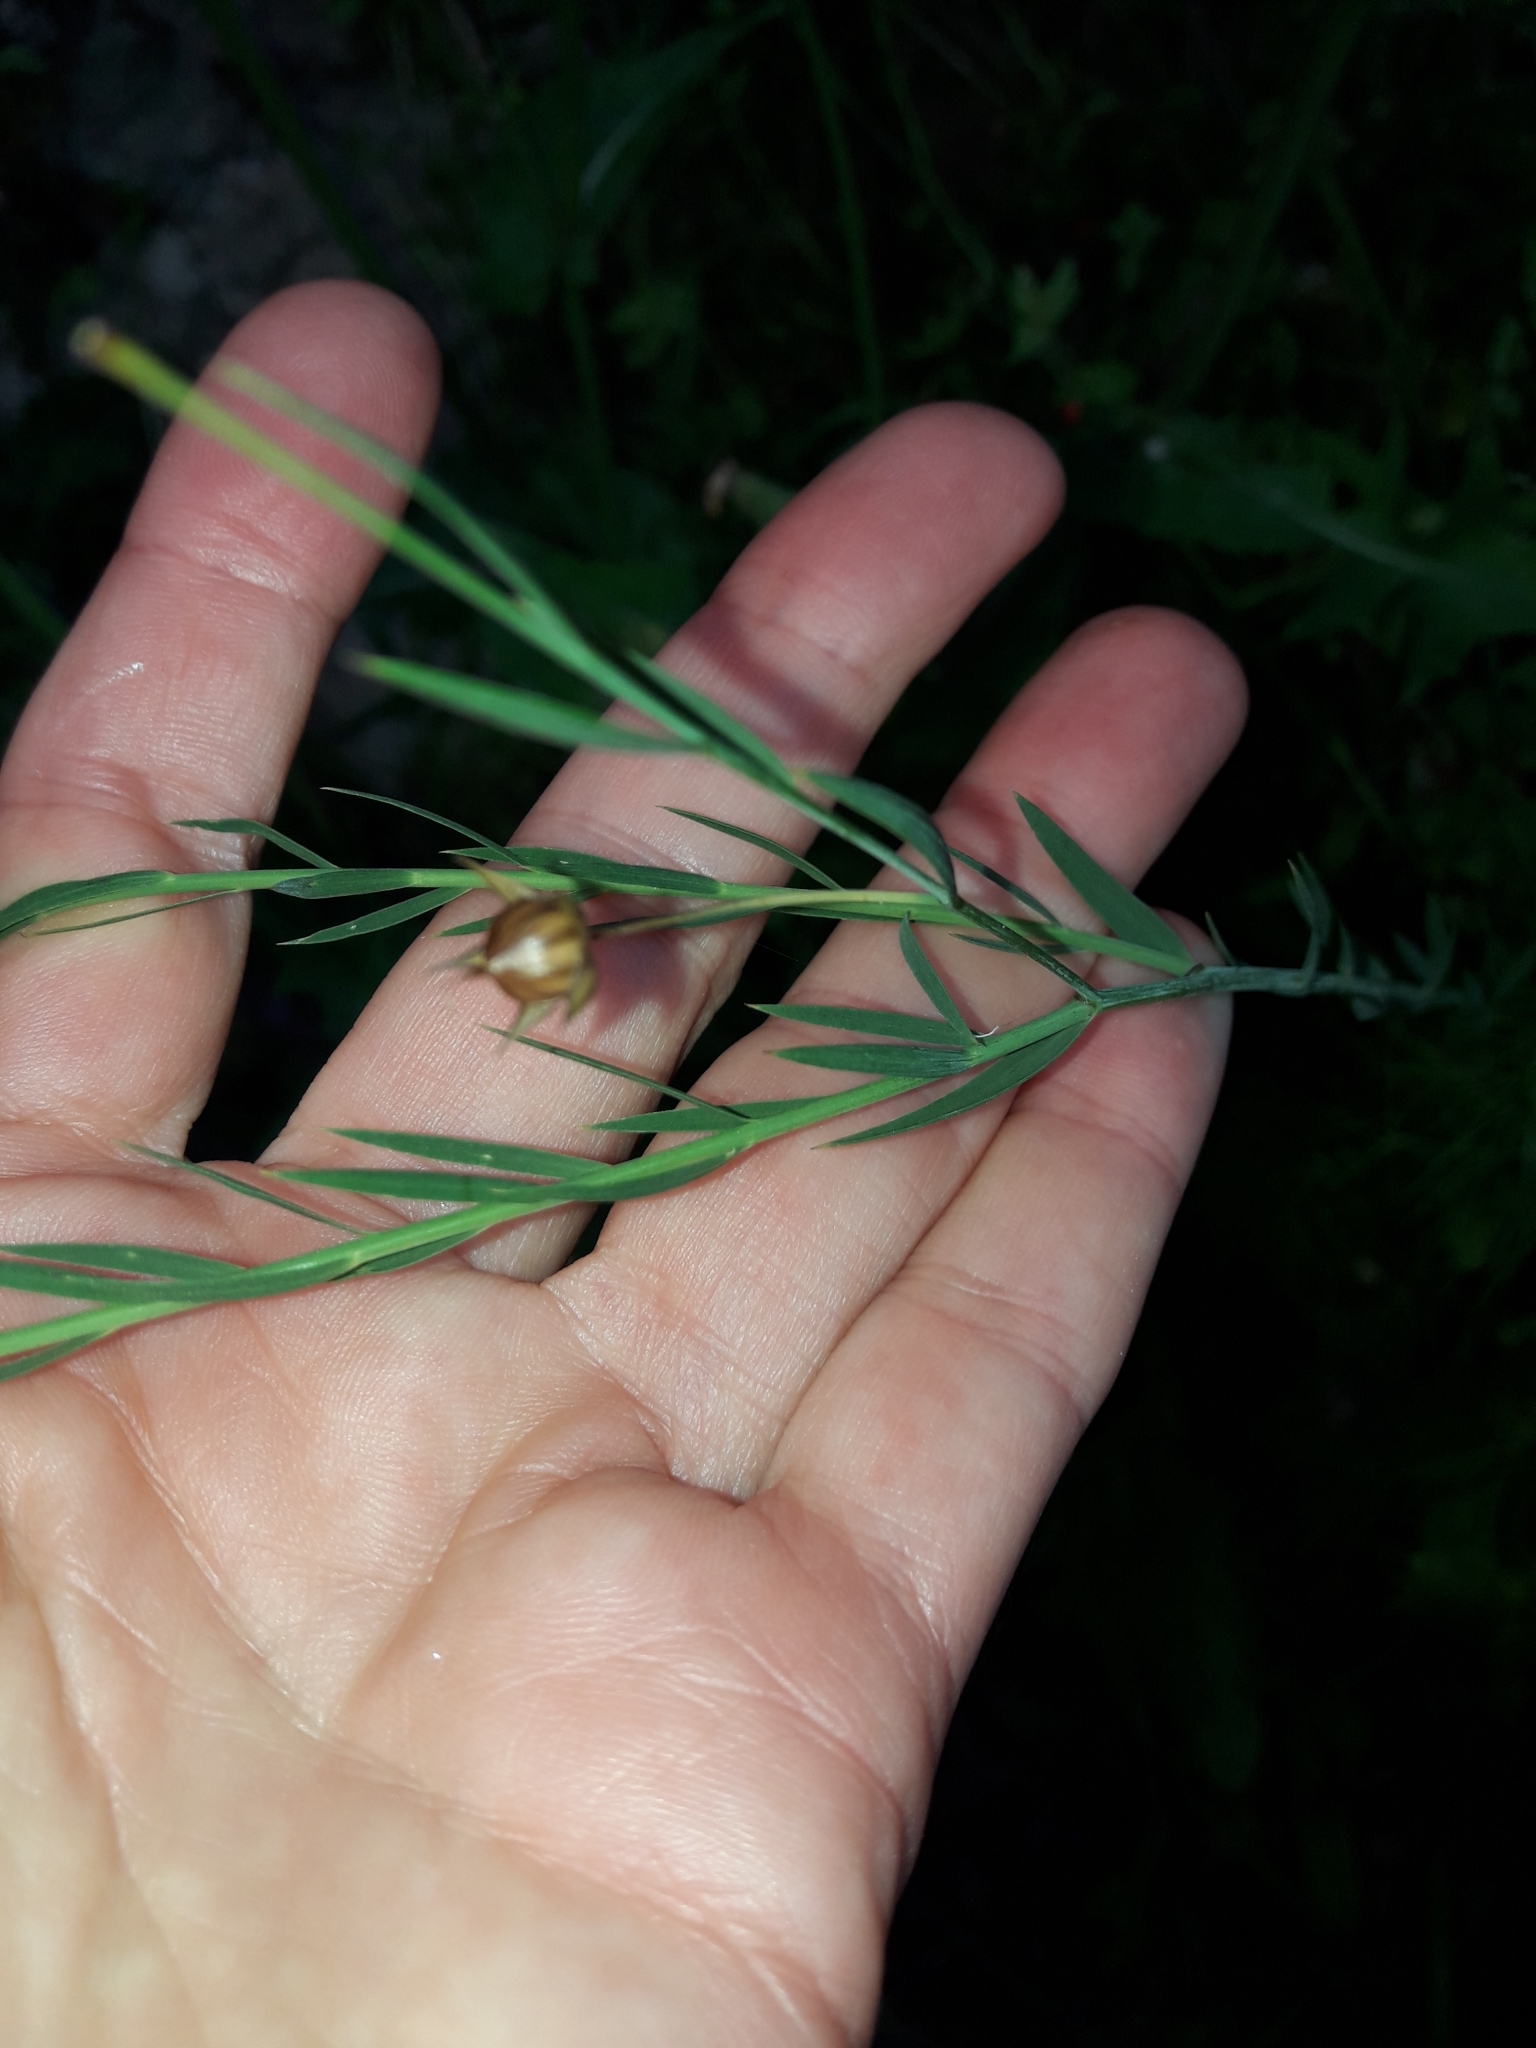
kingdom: Plantae
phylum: Tracheophyta
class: Magnoliopsida
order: Malpighiales
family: Linaceae
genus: Linum
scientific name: Linum bienne
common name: Pale flax
